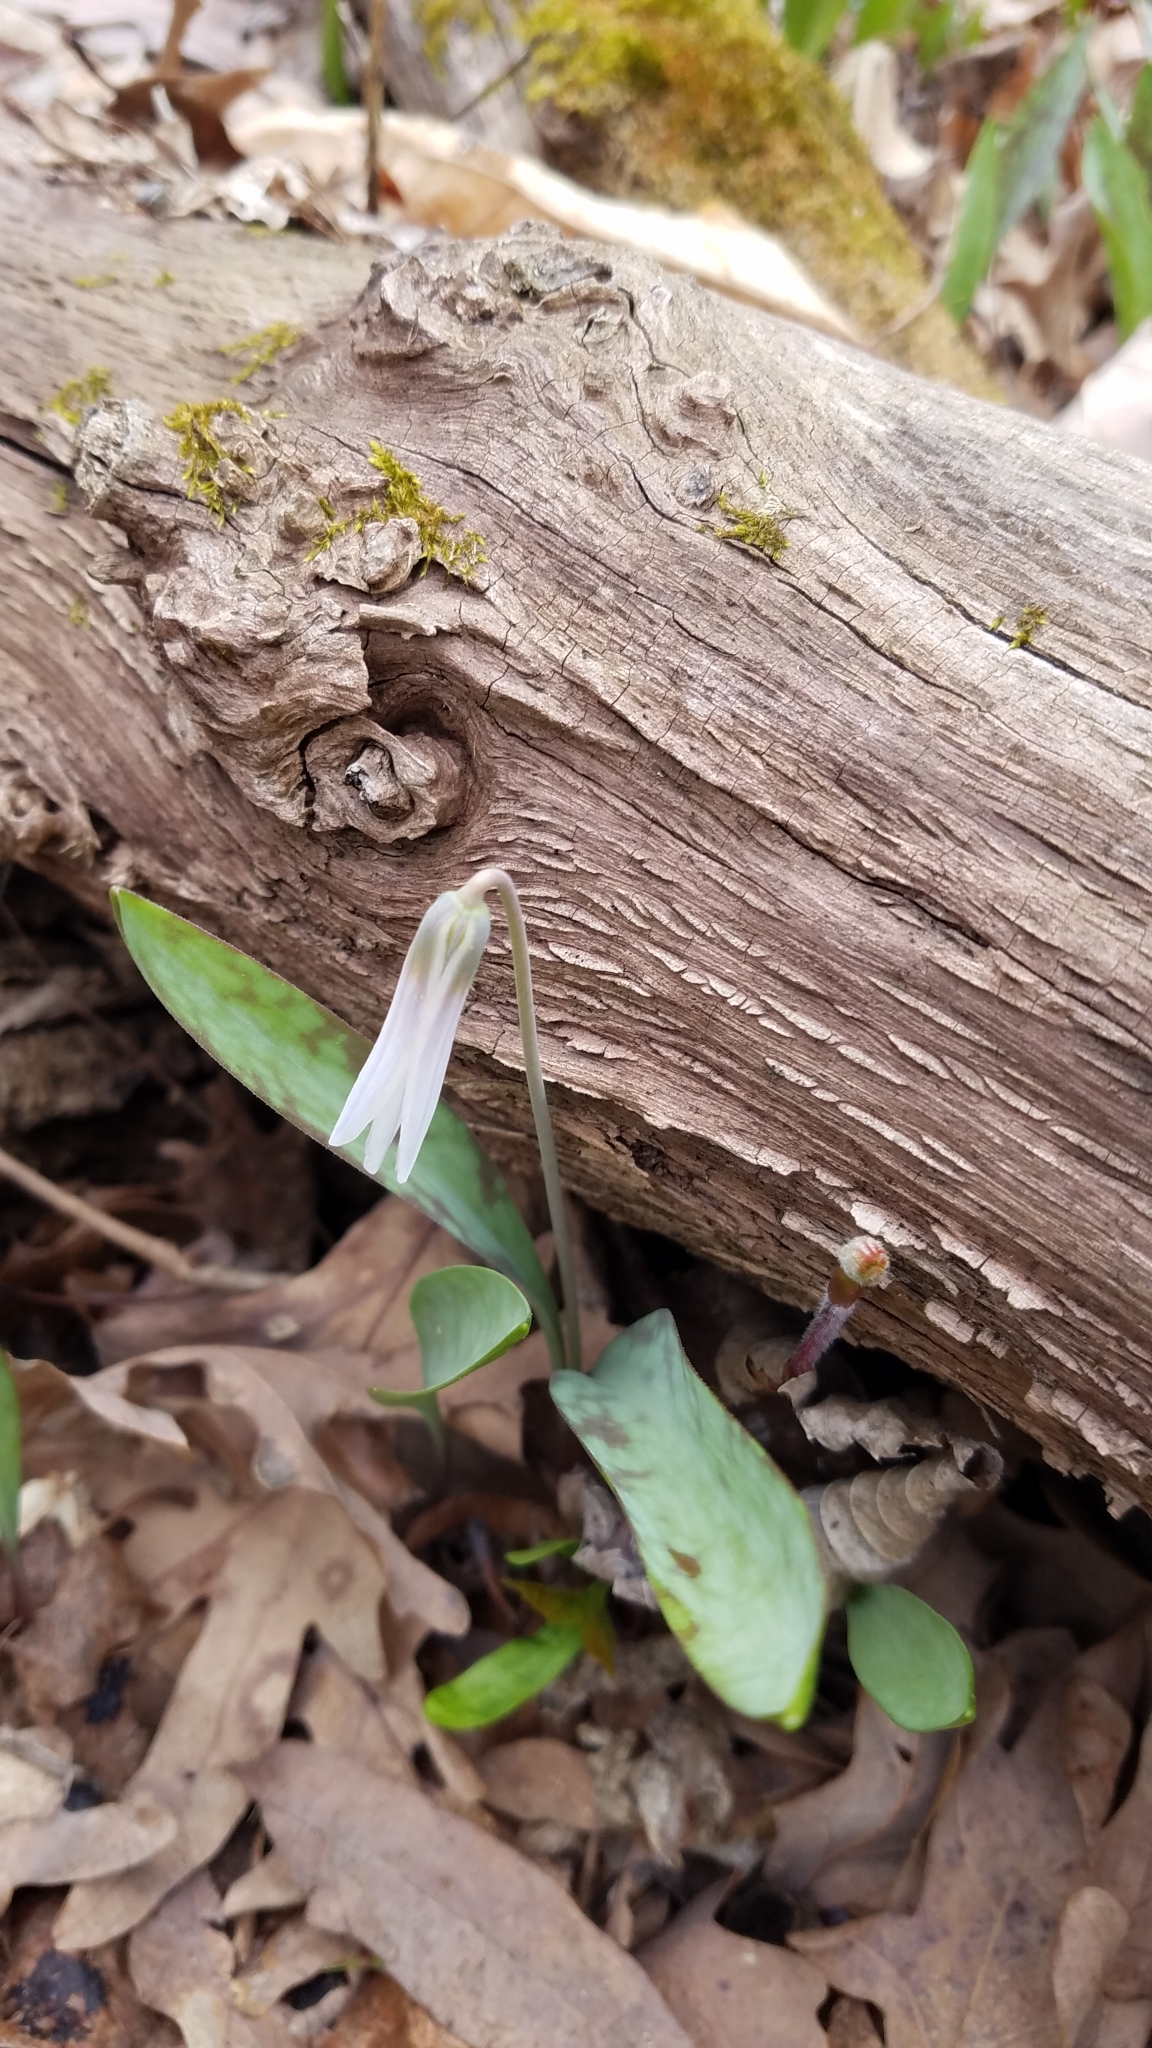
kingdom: Plantae
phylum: Tracheophyta
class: Liliopsida
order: Liliales
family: Liliaceae
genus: Erythronium
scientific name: Erythronium albidum
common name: White trout-lily
